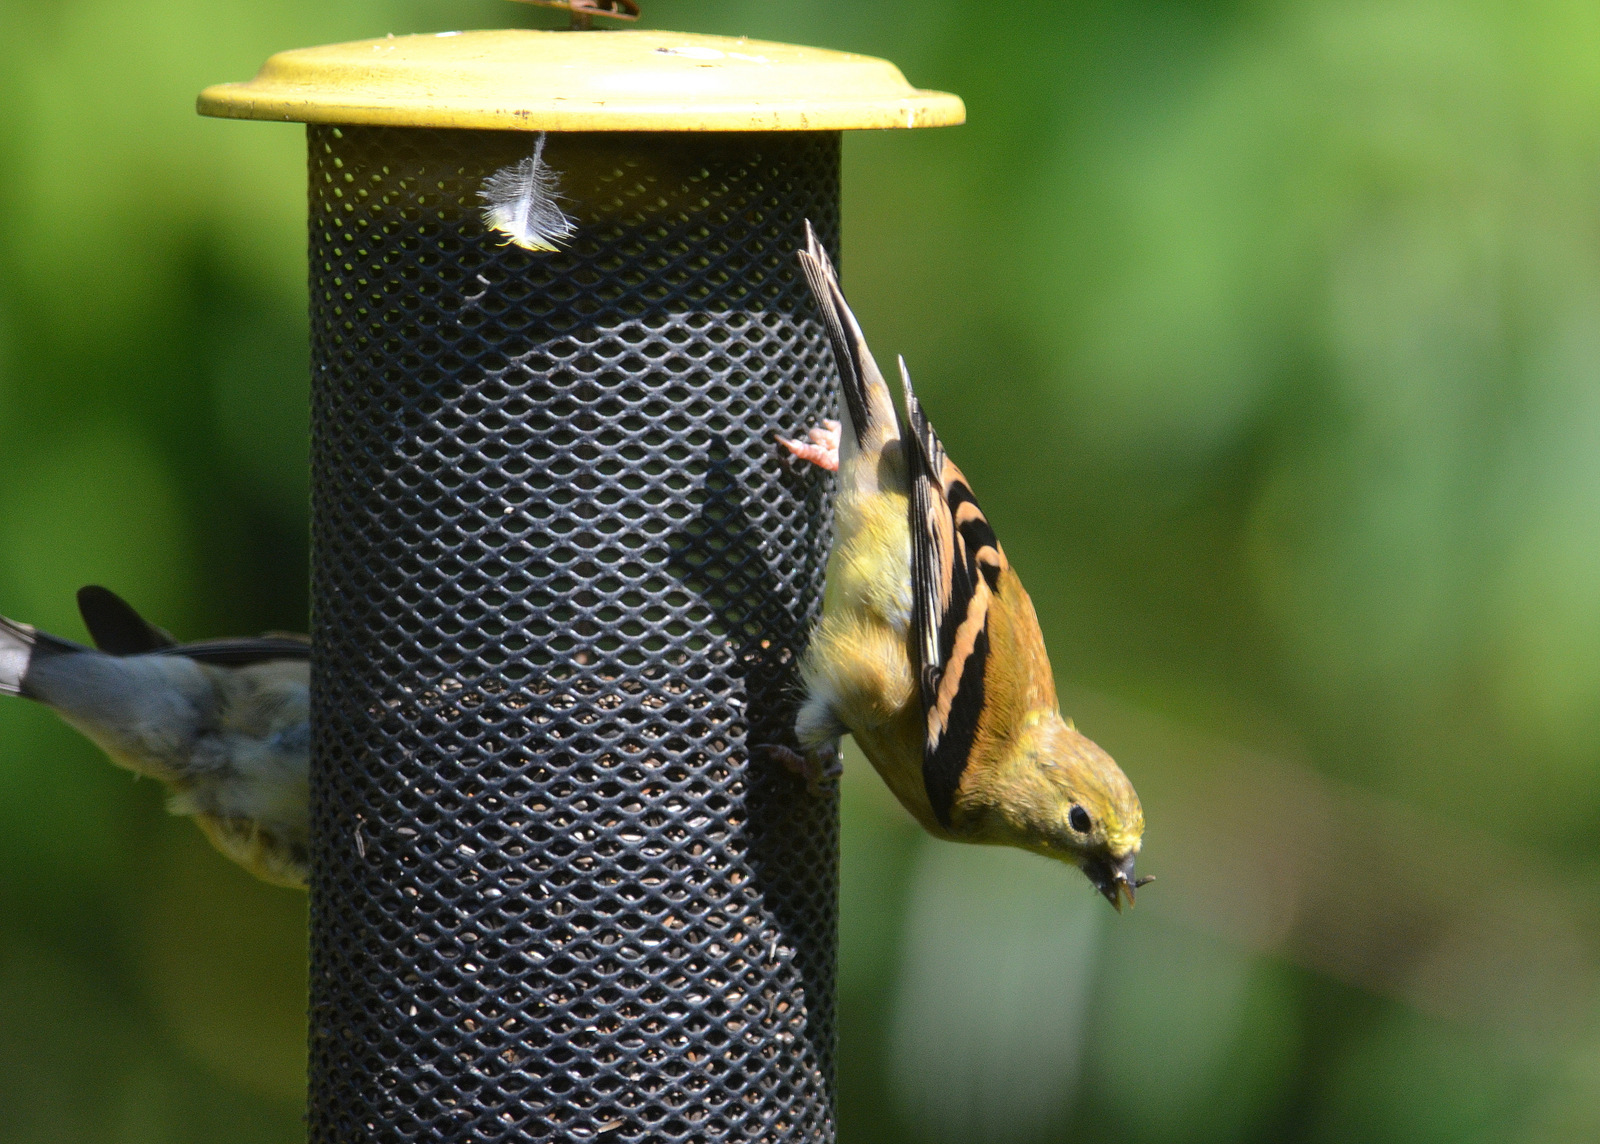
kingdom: Animalia
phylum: Chordata
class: Aves
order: Passeriformes
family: Fringillidae
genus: Spinus
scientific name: Spinus tristis
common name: American goldfinch
